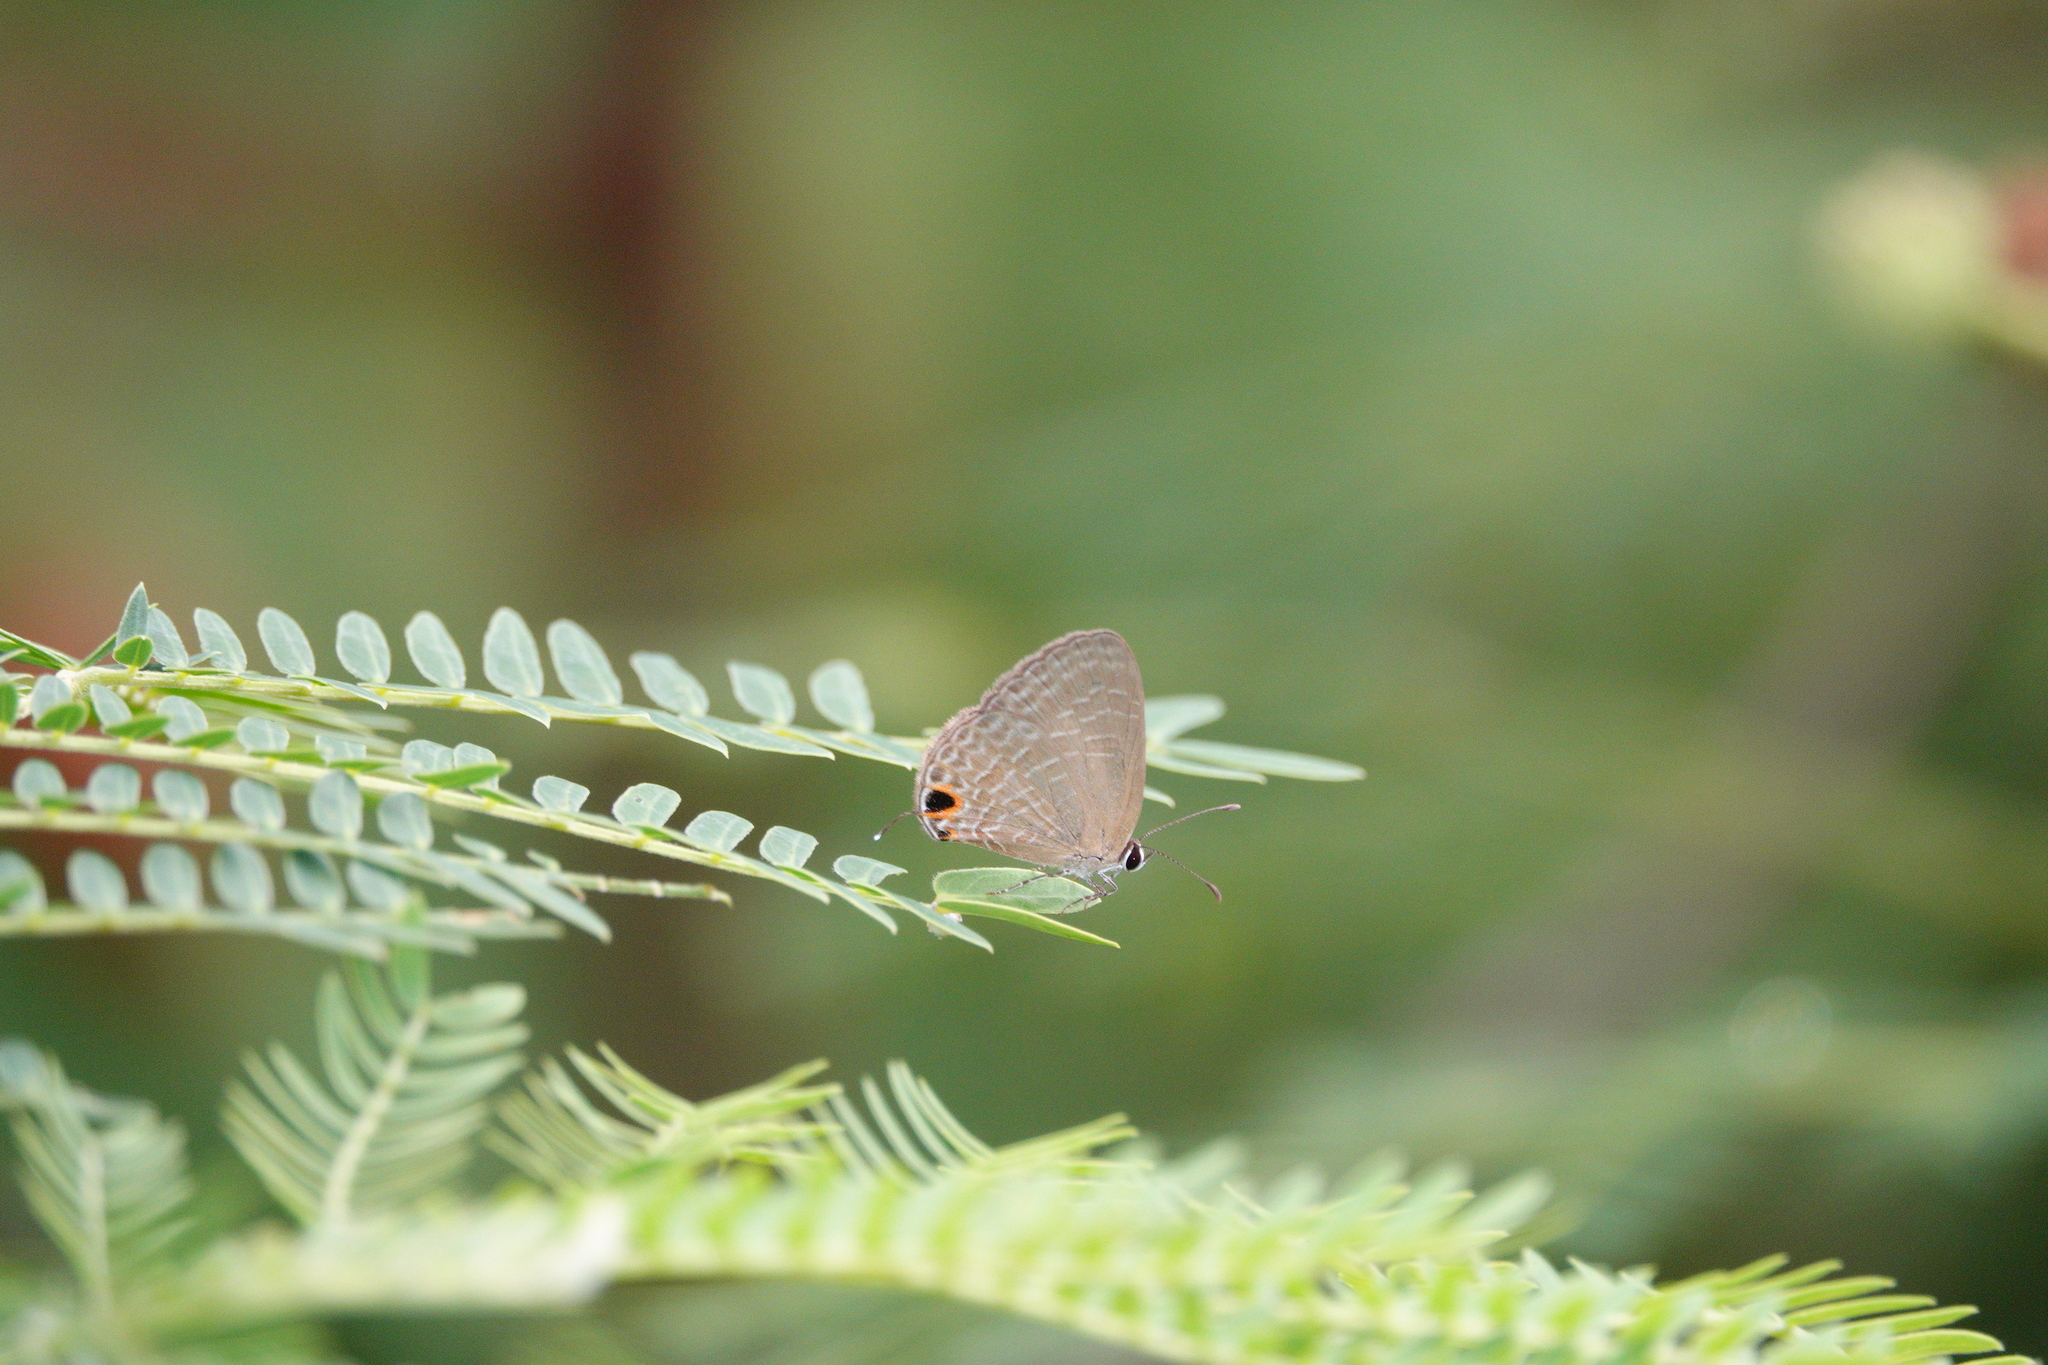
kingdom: Animalia
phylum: Arthropoda
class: Insecta
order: Lepidoptera
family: Lycaenidae
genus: Jamides
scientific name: Jamides bochus
